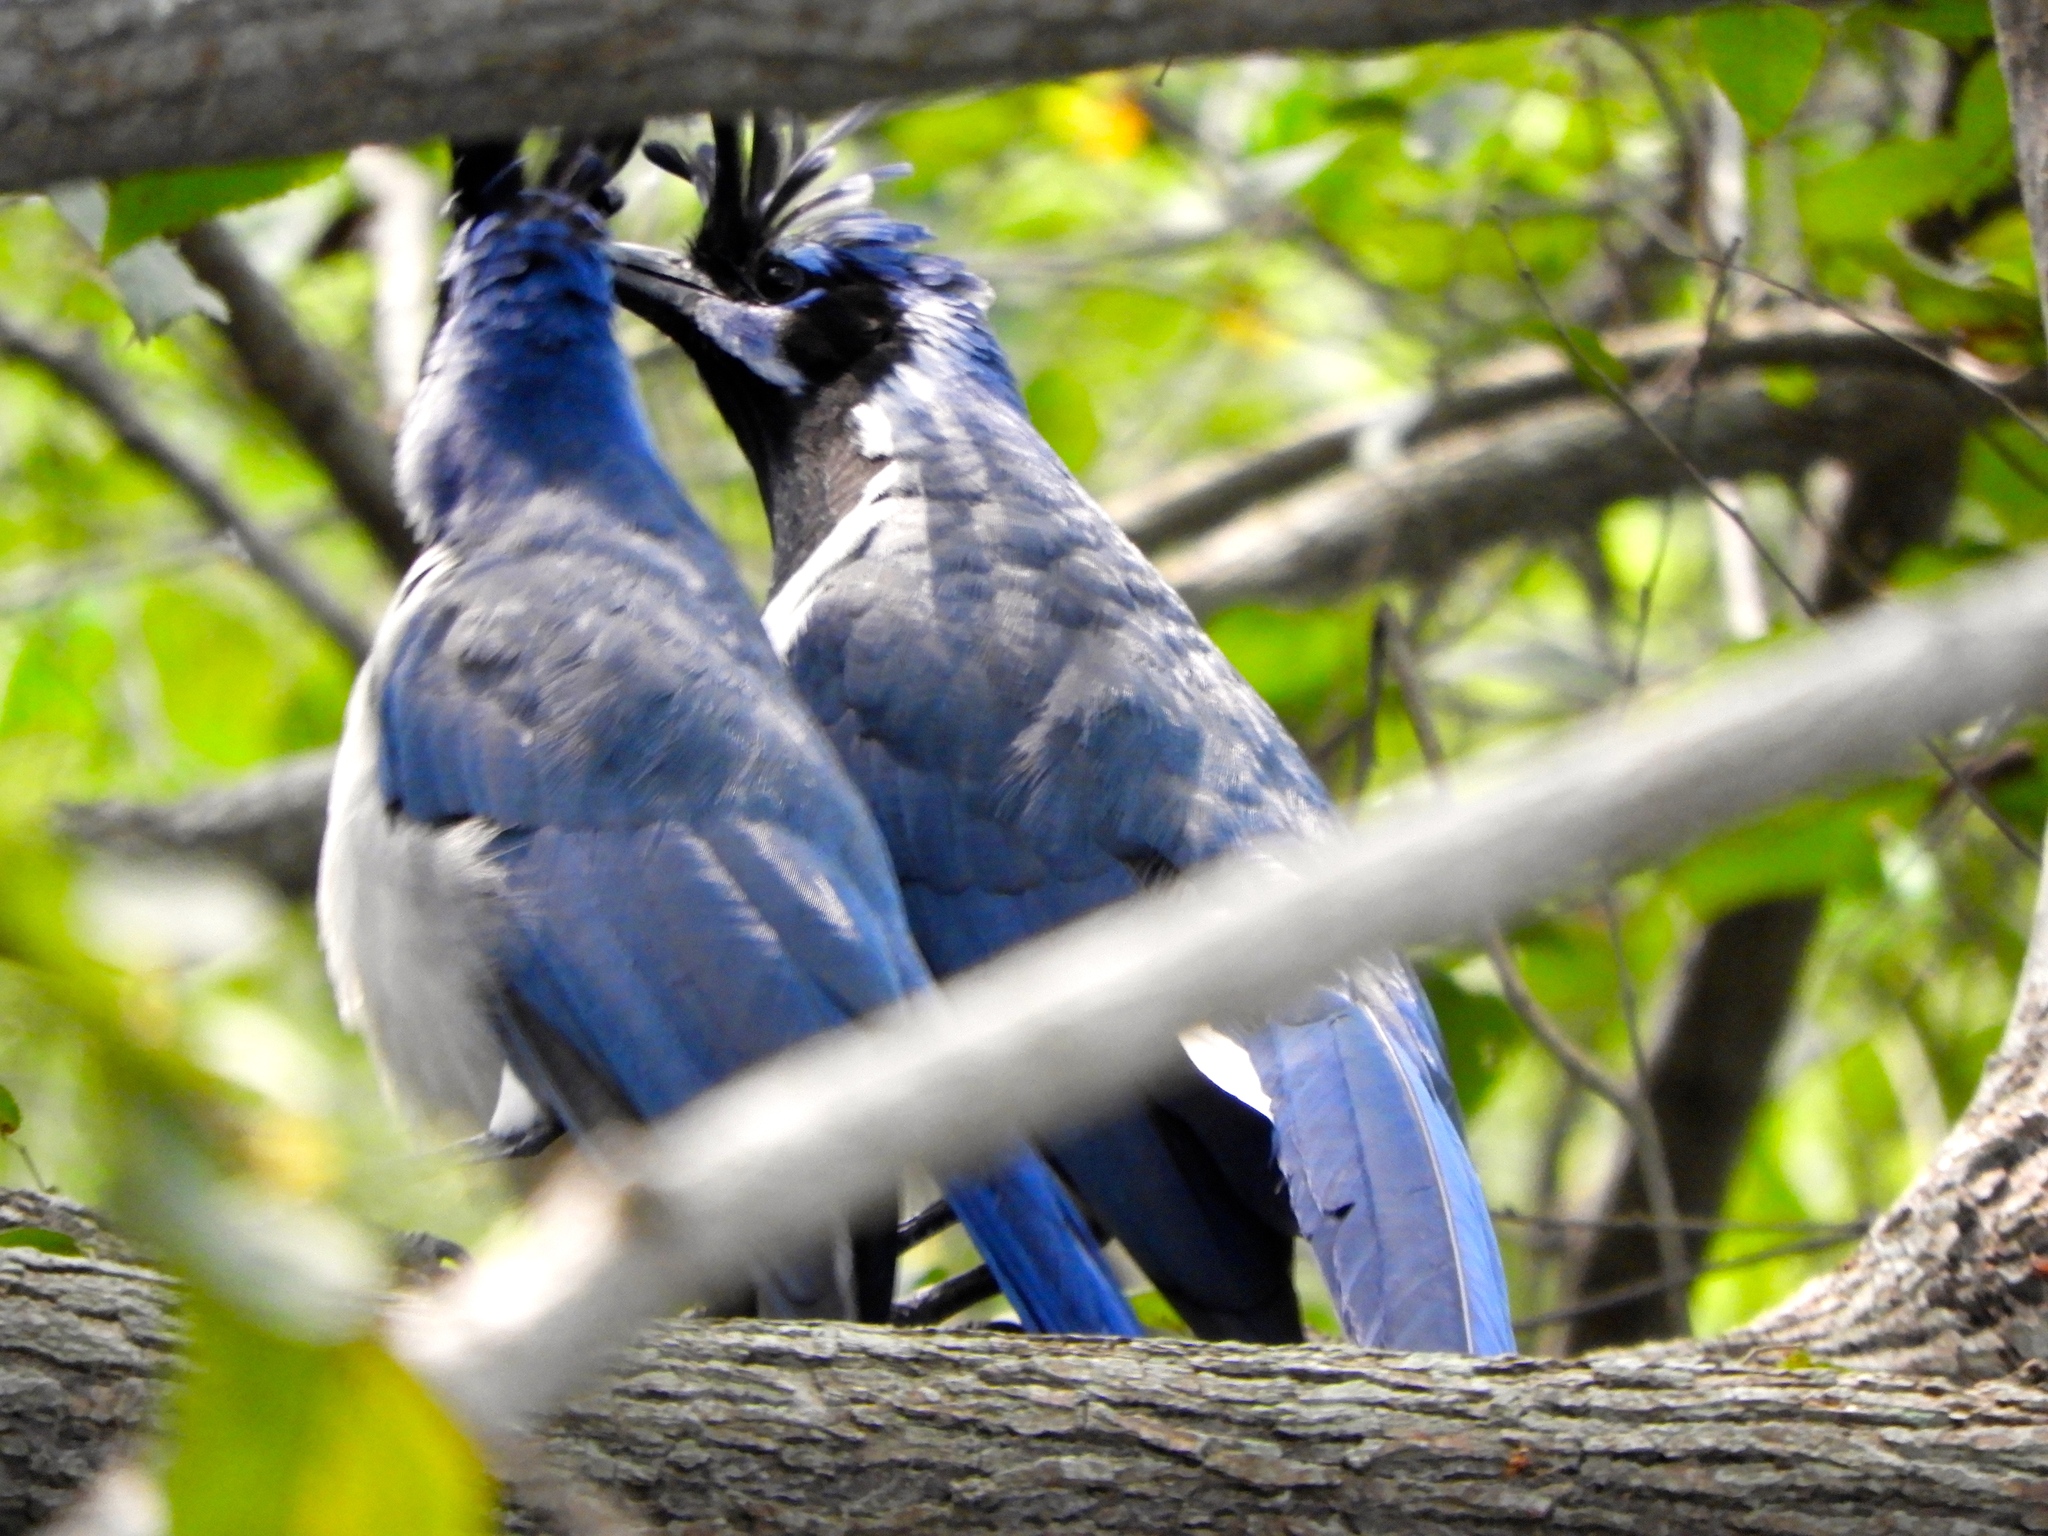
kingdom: Animalia
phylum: Chordata
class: Aves
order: Passeriformes
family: Corvidae
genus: Calocitta
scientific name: Calocitta colliei
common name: Black-throated magpie-jay
